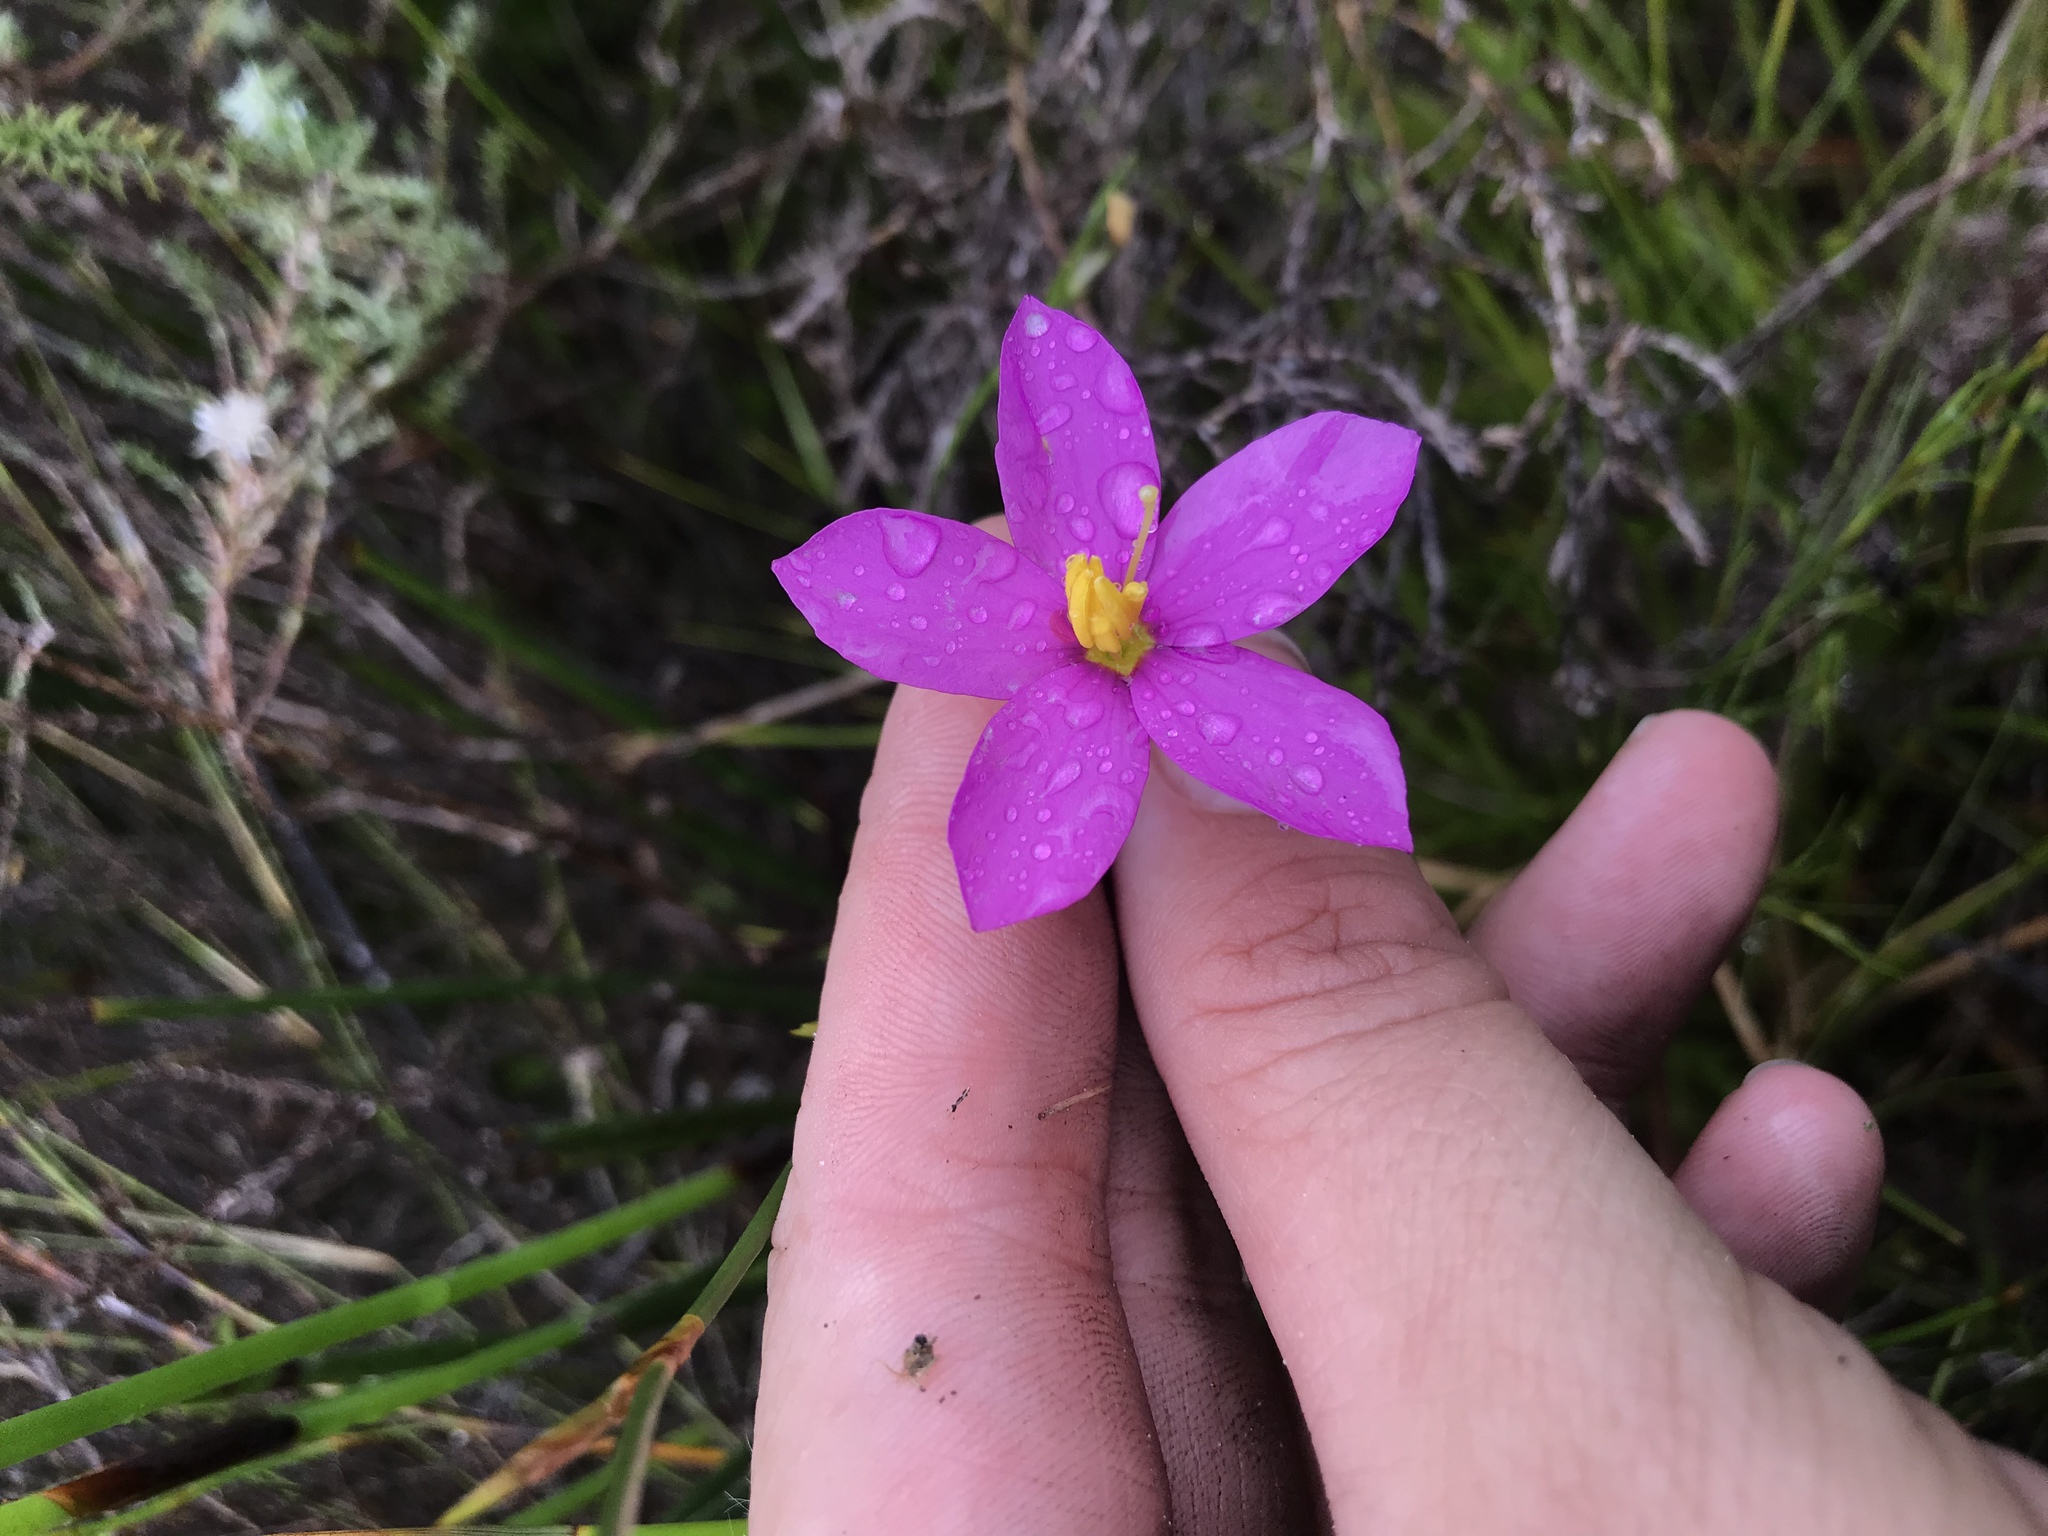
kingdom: Plantae
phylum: Tracheophyta
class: Magnoliopsida
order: Gentianales
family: Gentianaceae
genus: Chironia
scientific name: Chironia jasminoides
